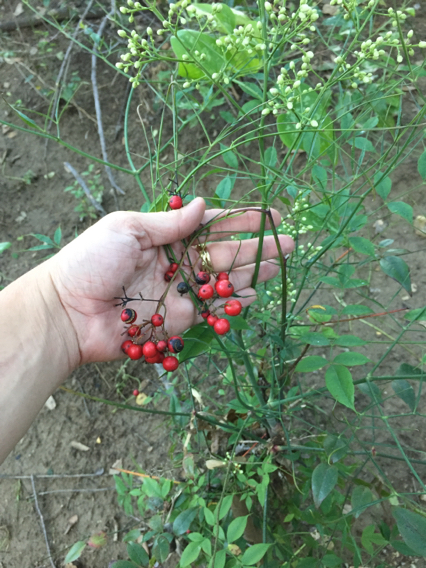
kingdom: Plantae
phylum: Tracheophyta
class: Magnoliopsida
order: Ranunculales
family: Berberidaceae
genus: Nandina
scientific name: Nandina domestica
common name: Sacred bamboo
